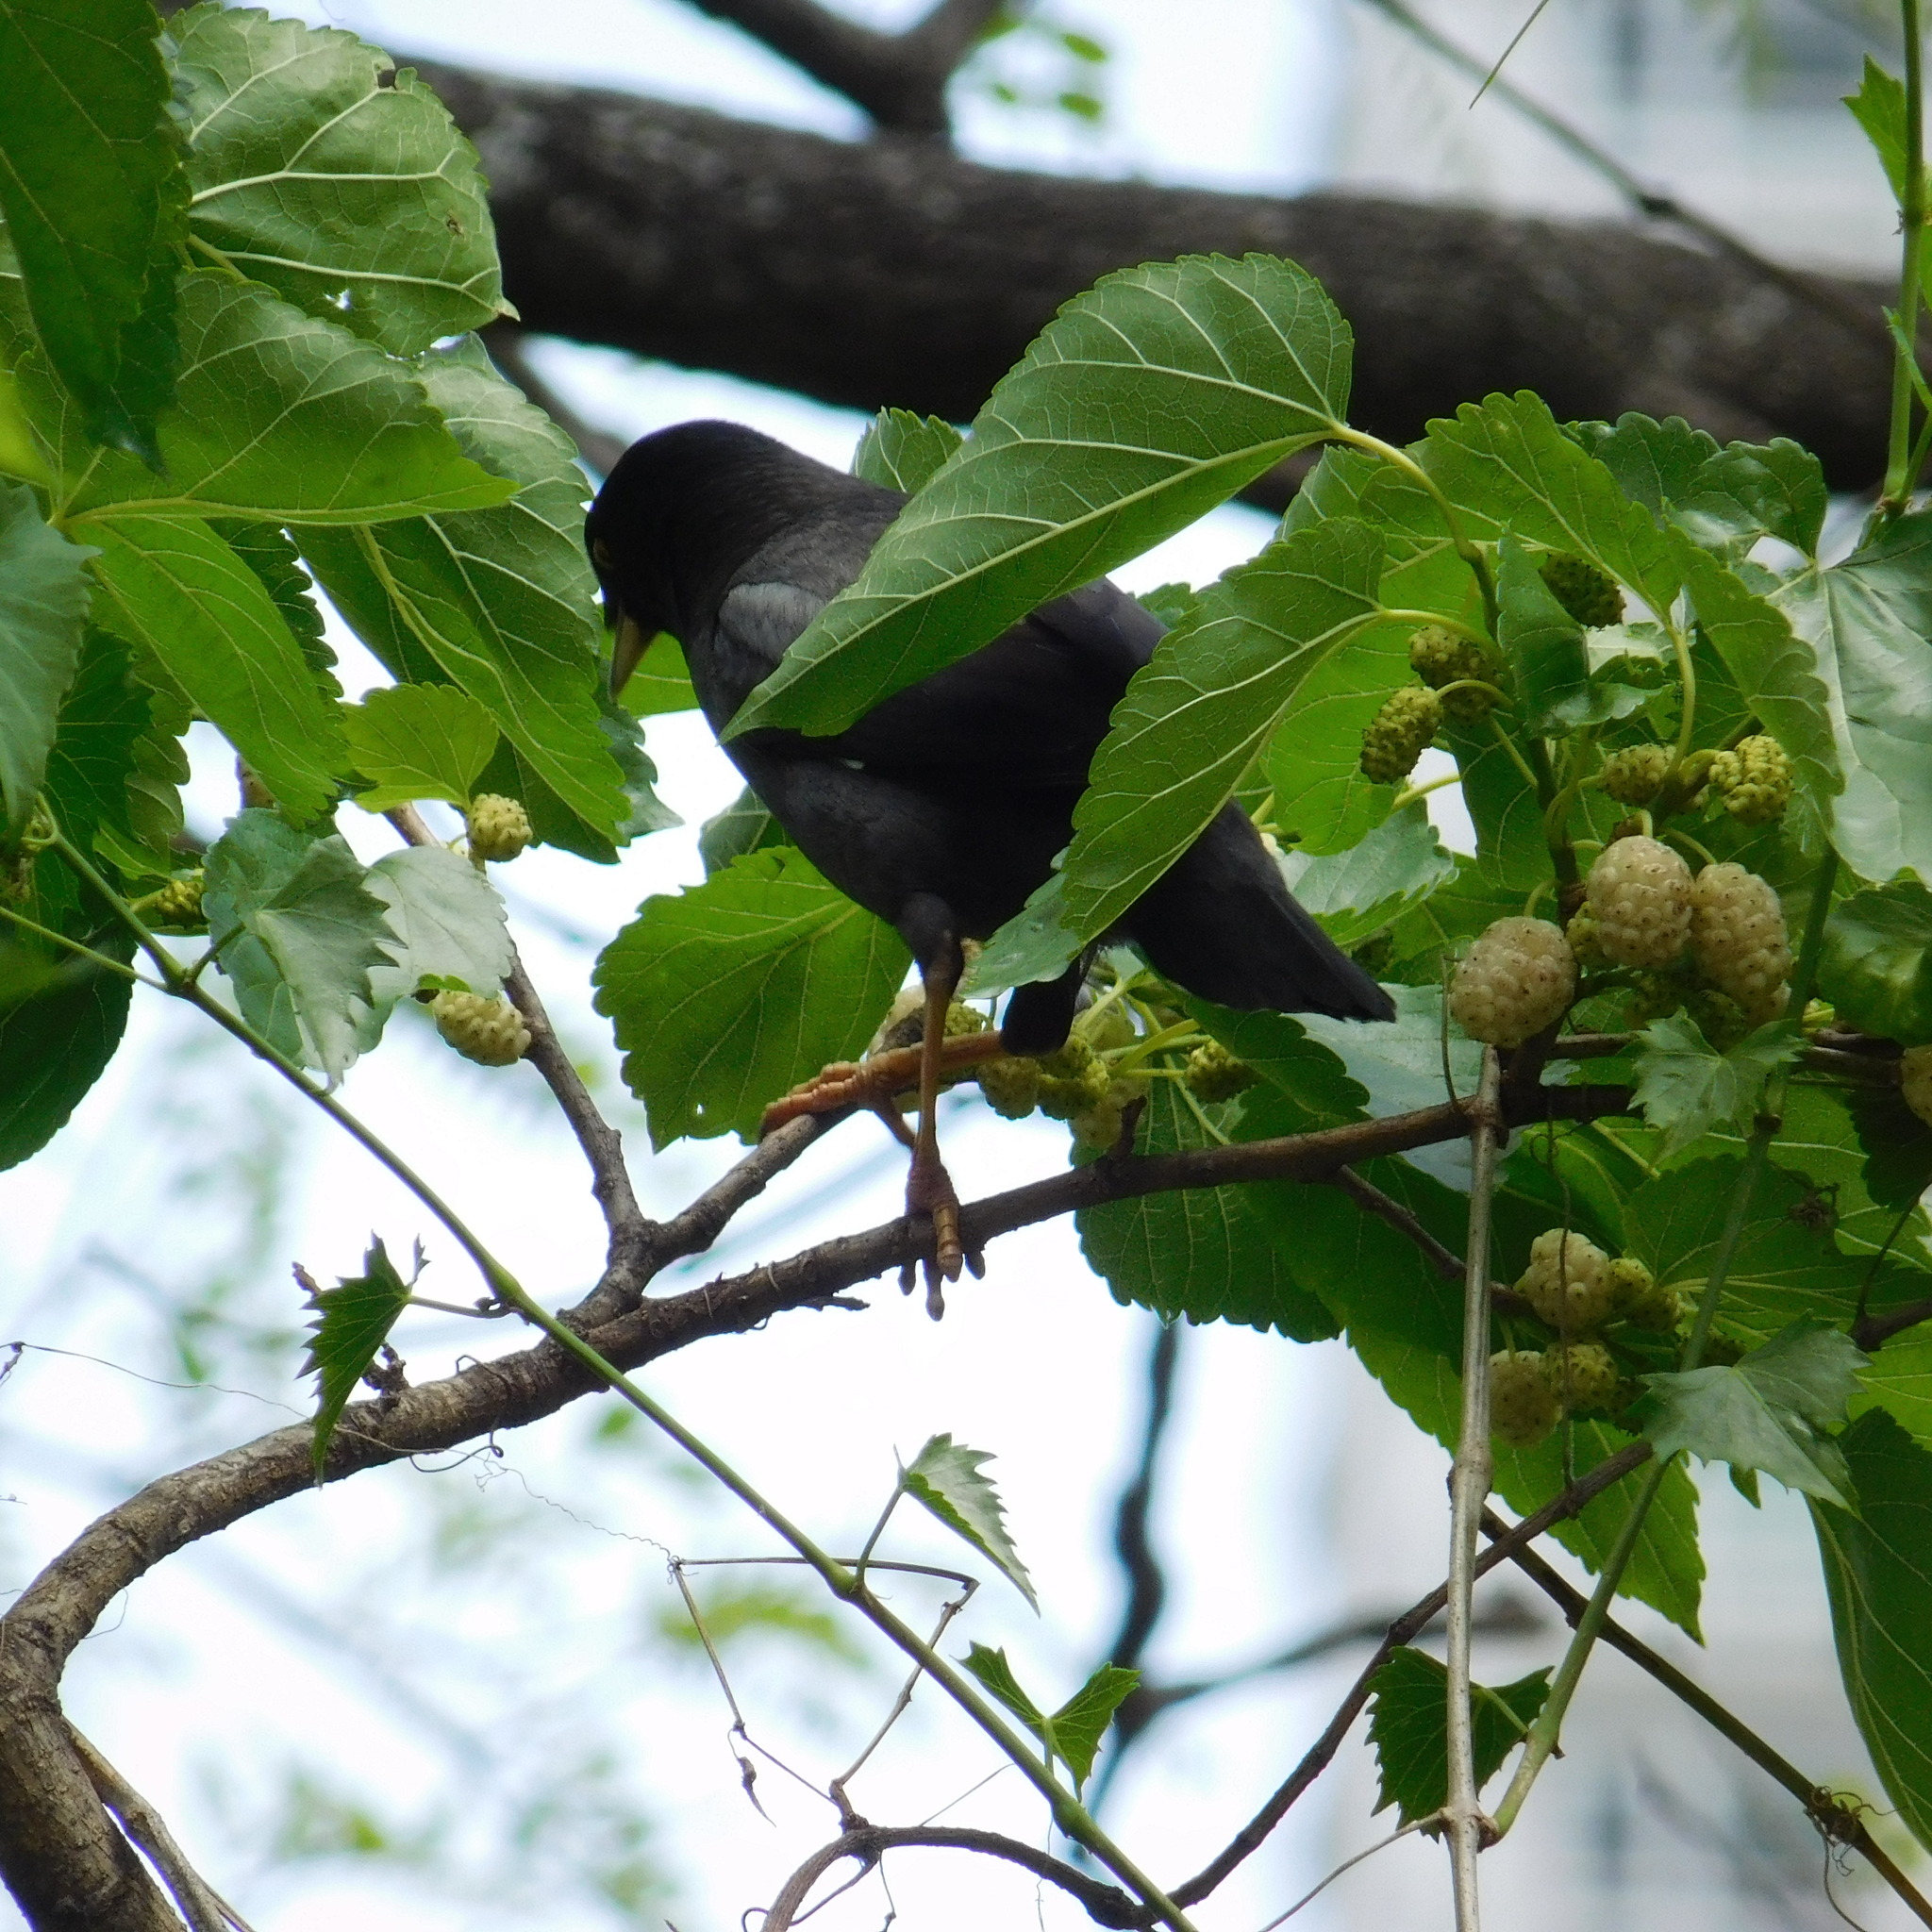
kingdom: Animalia
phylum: Chordata
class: Aves
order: Passeriformes
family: Sturnidae
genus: Acridotheres
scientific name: Acridotheres cristatellus
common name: Crested myna
